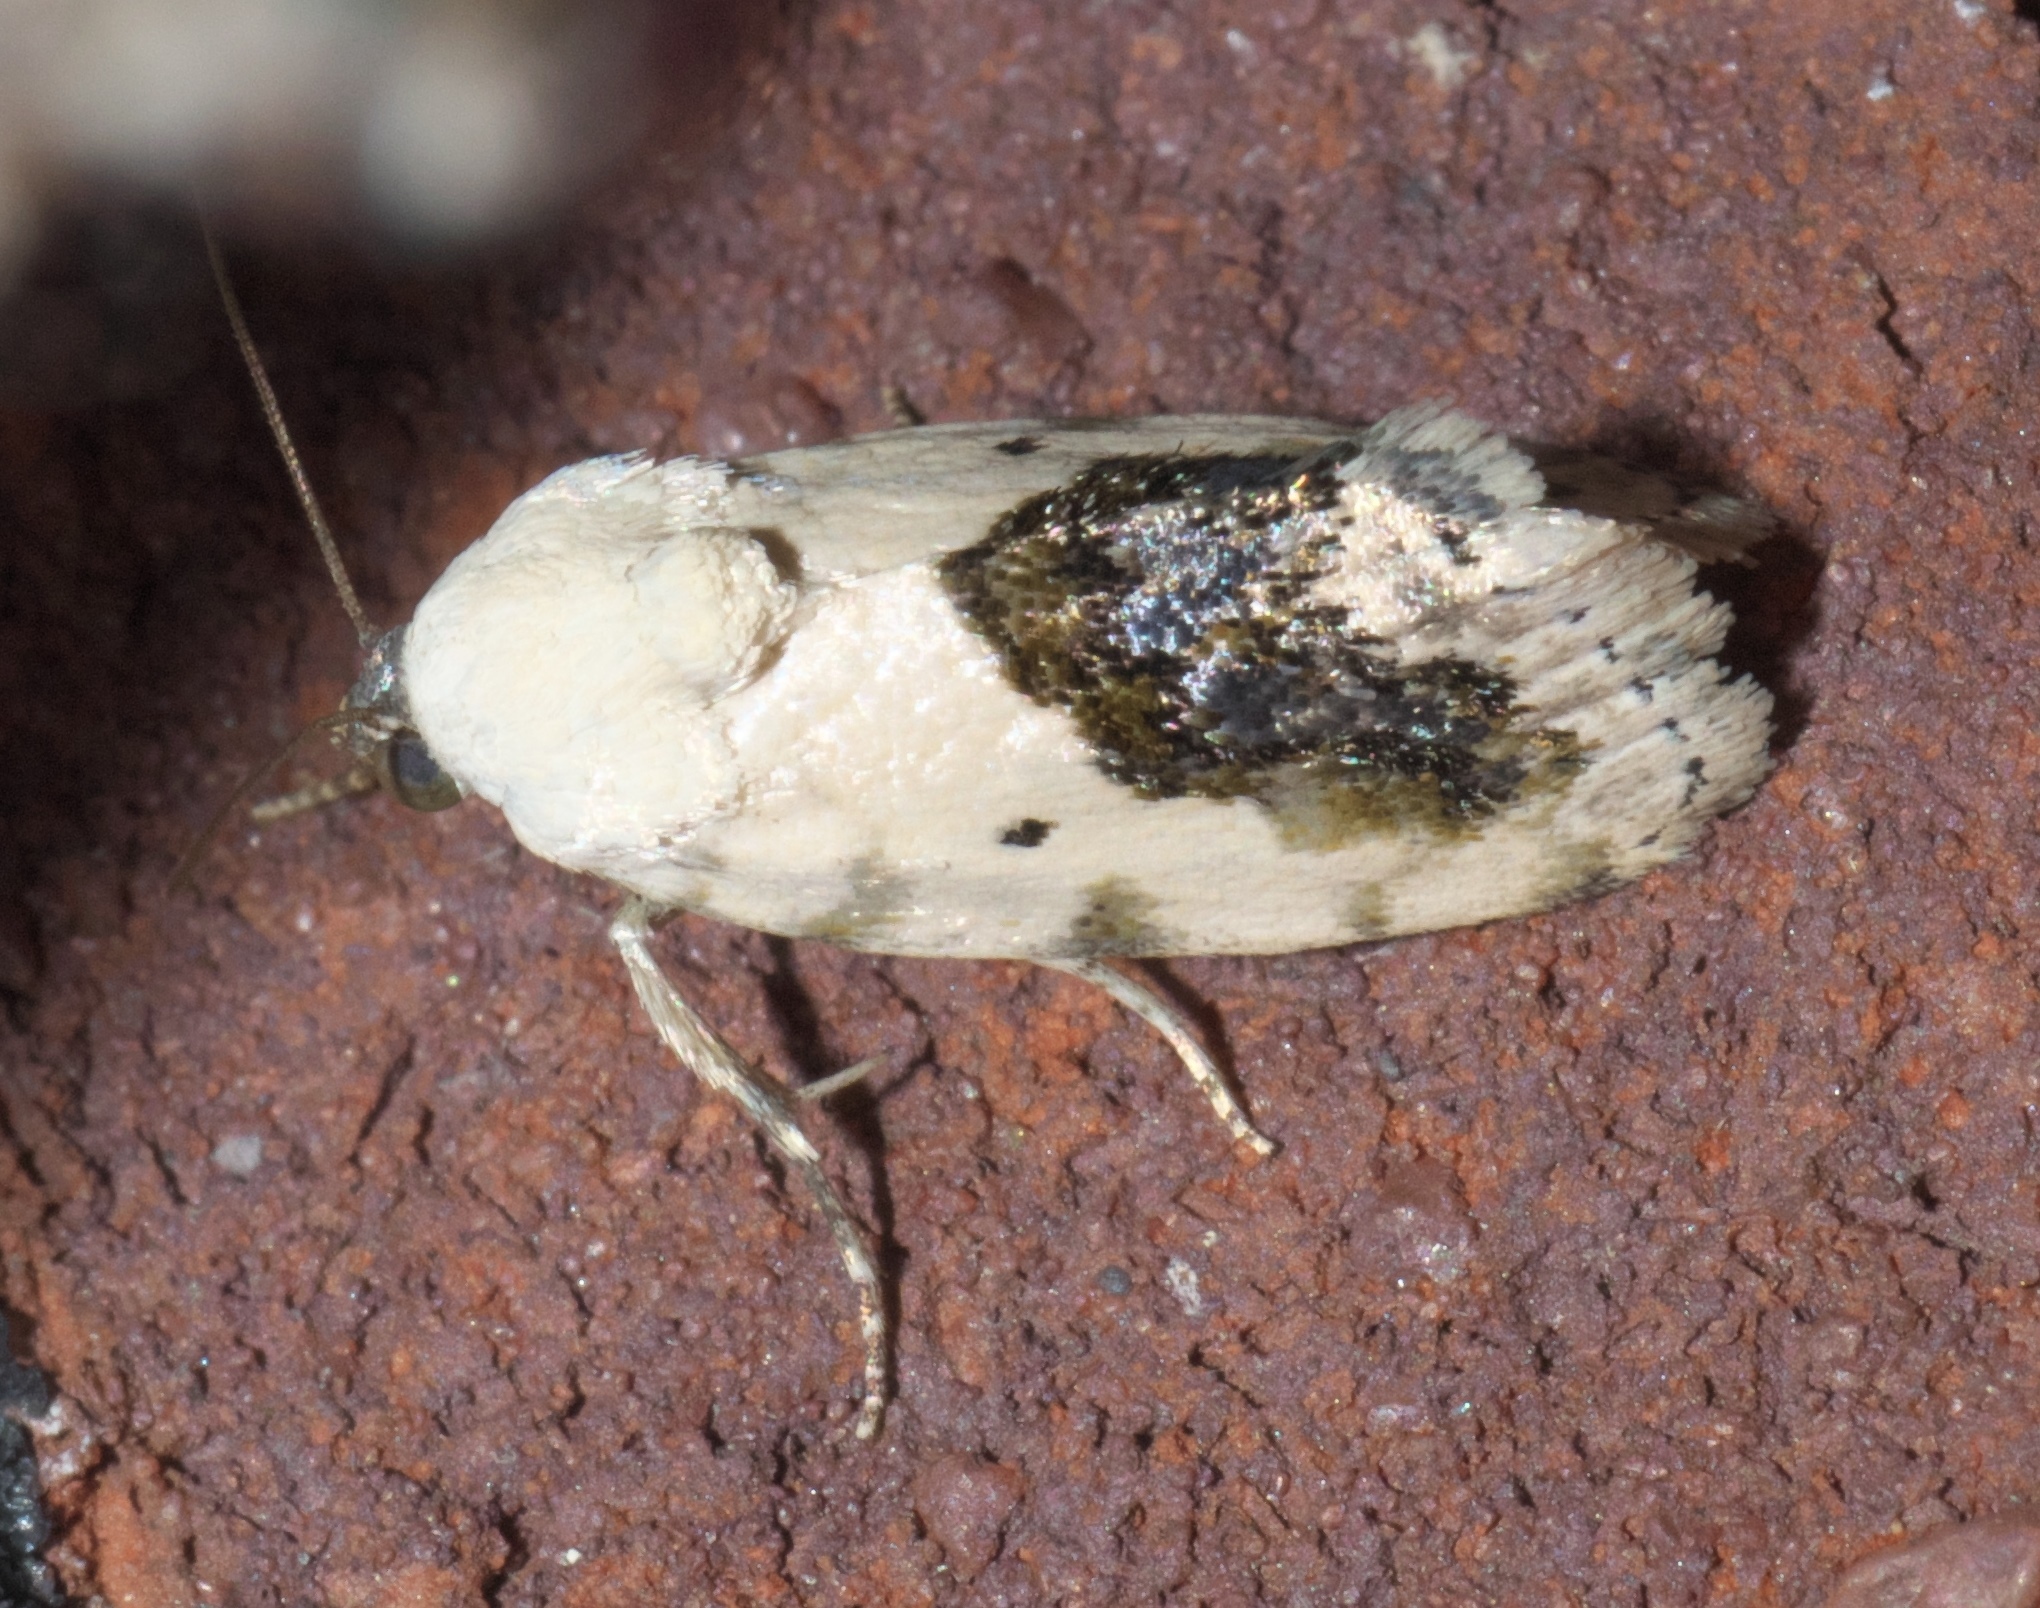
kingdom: Animalia
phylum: Arthropoda
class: Insecta
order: Lepidoptera
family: Noctuidae
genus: Acontia
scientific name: Acontia erastrioides
